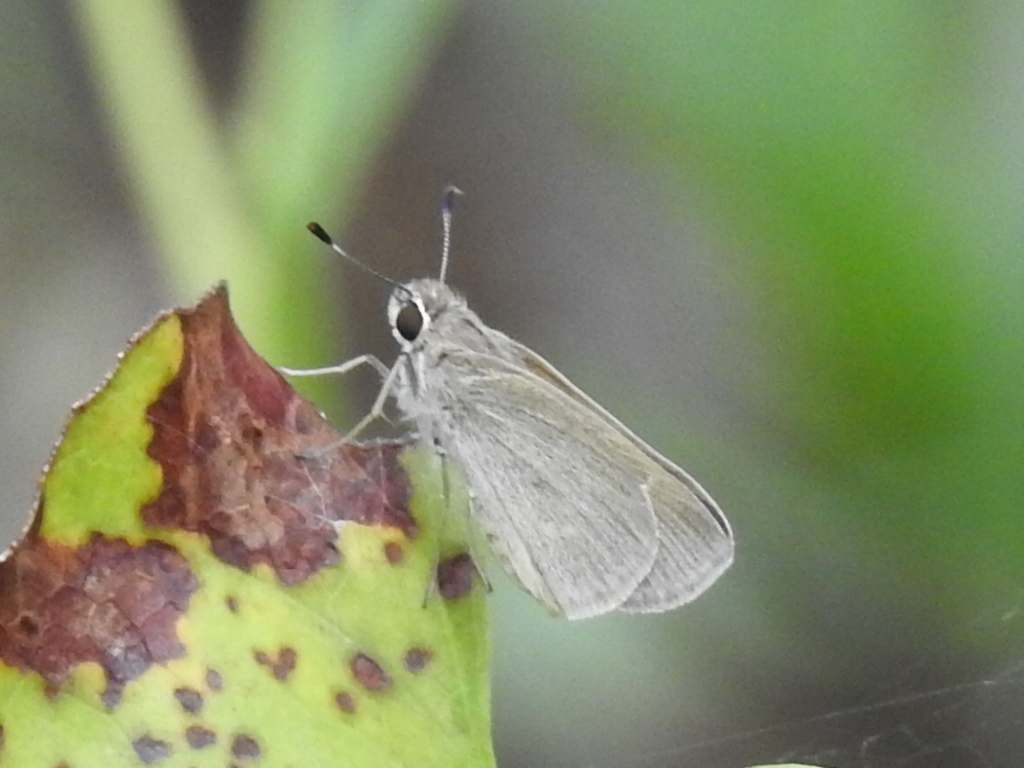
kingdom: Animalia
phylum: Arthropoda
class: Insecta
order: Lepidoptera
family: Hesperiidae
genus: Lerodea
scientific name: Lerodea eufala
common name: Eufala skipper
